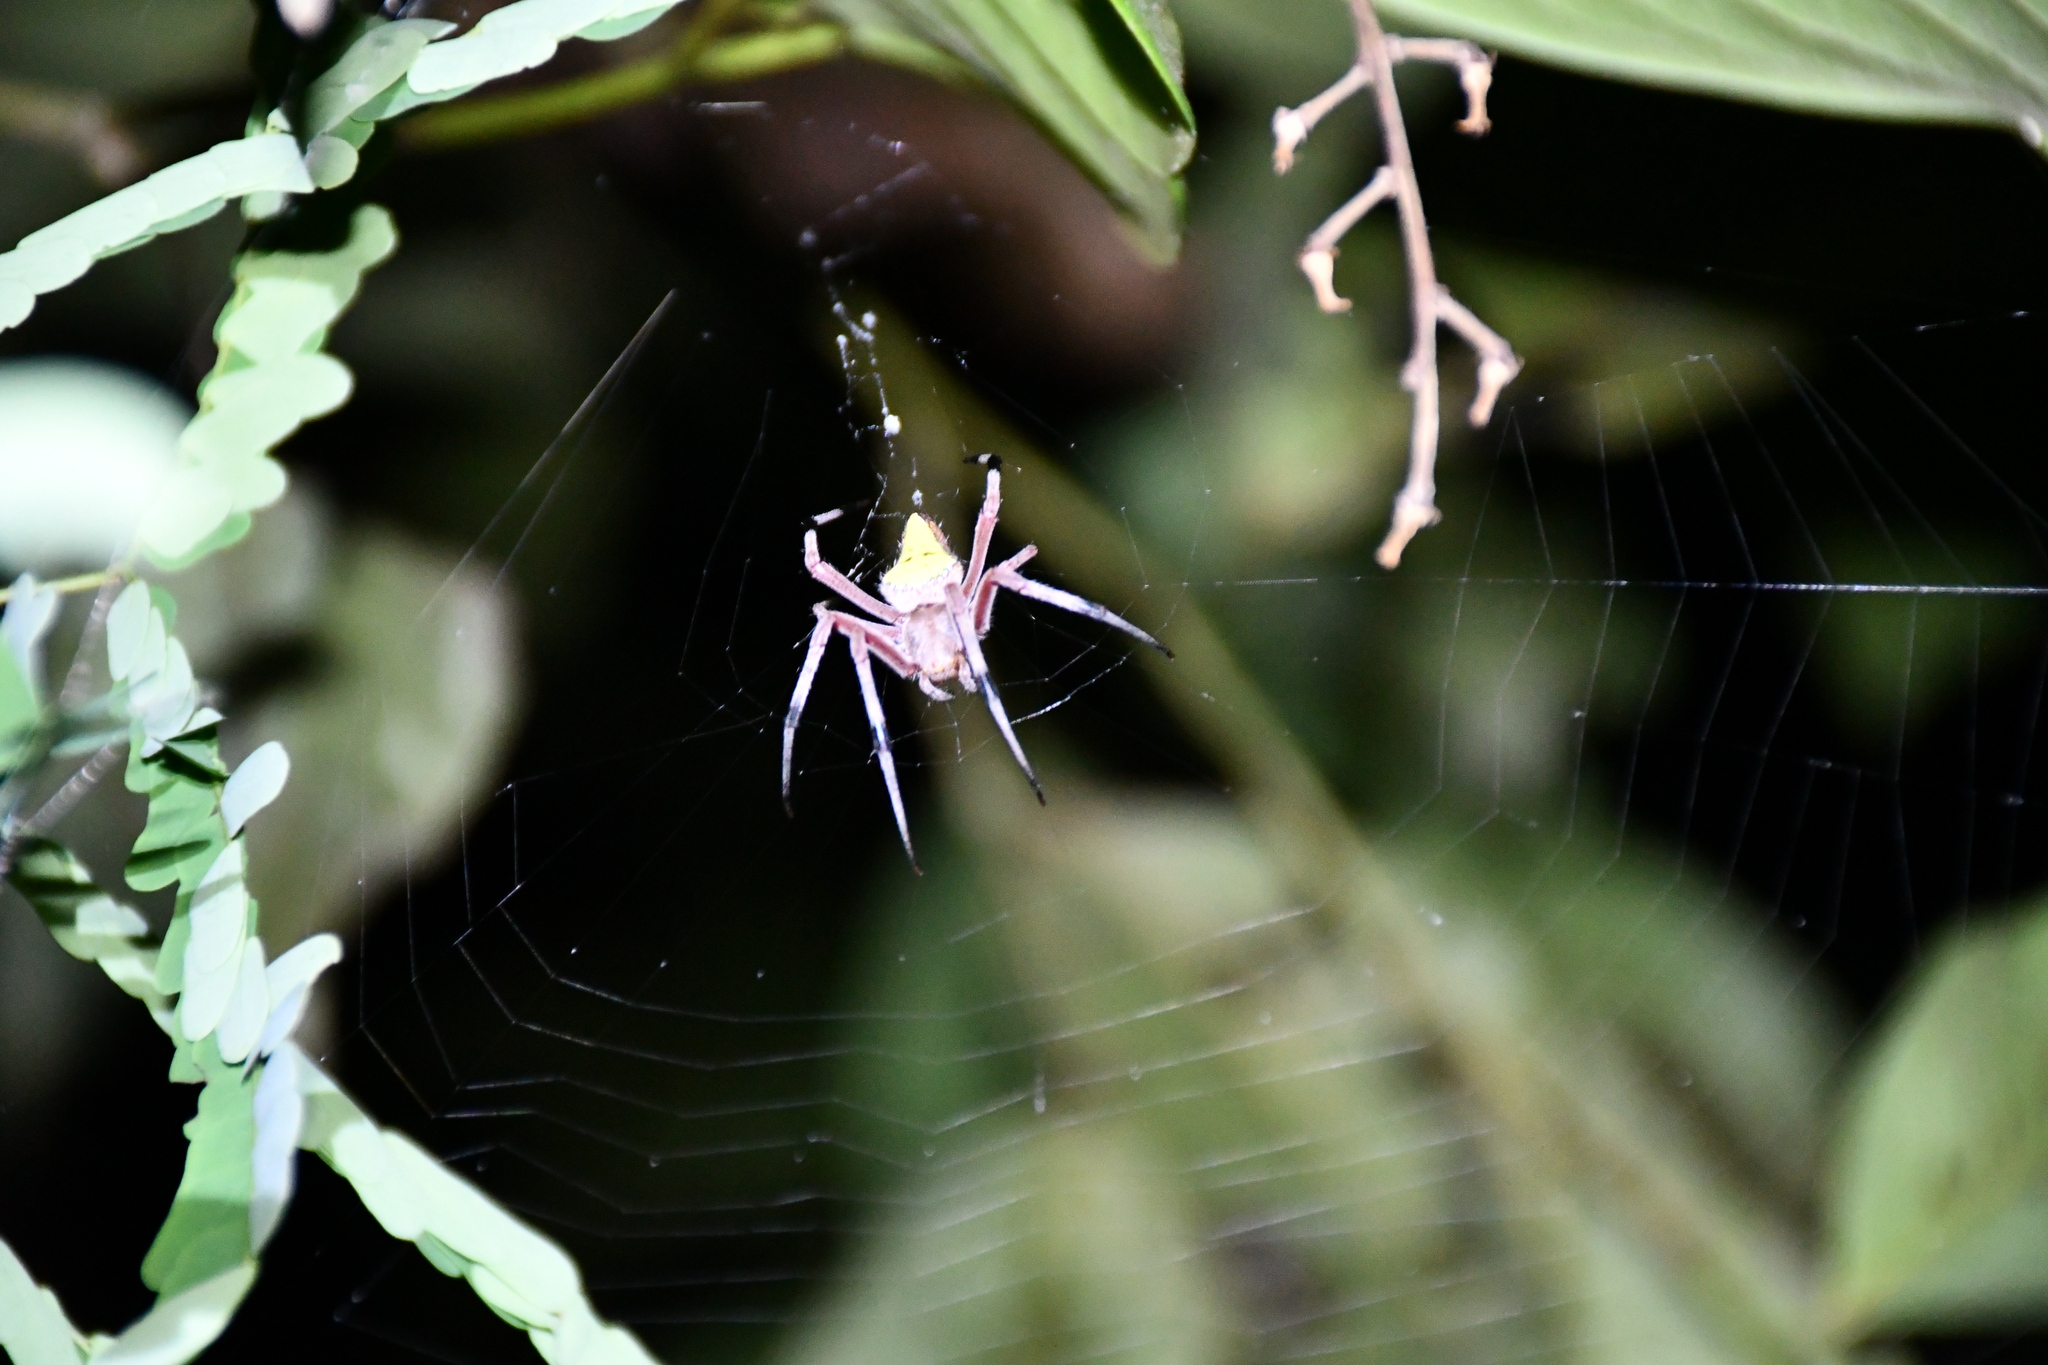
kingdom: Animalia
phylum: Arthropoda
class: Arachnida
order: Araneae
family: Araneidae
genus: Eriophora
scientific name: Eriophora nephiloides
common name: Orb weavers
